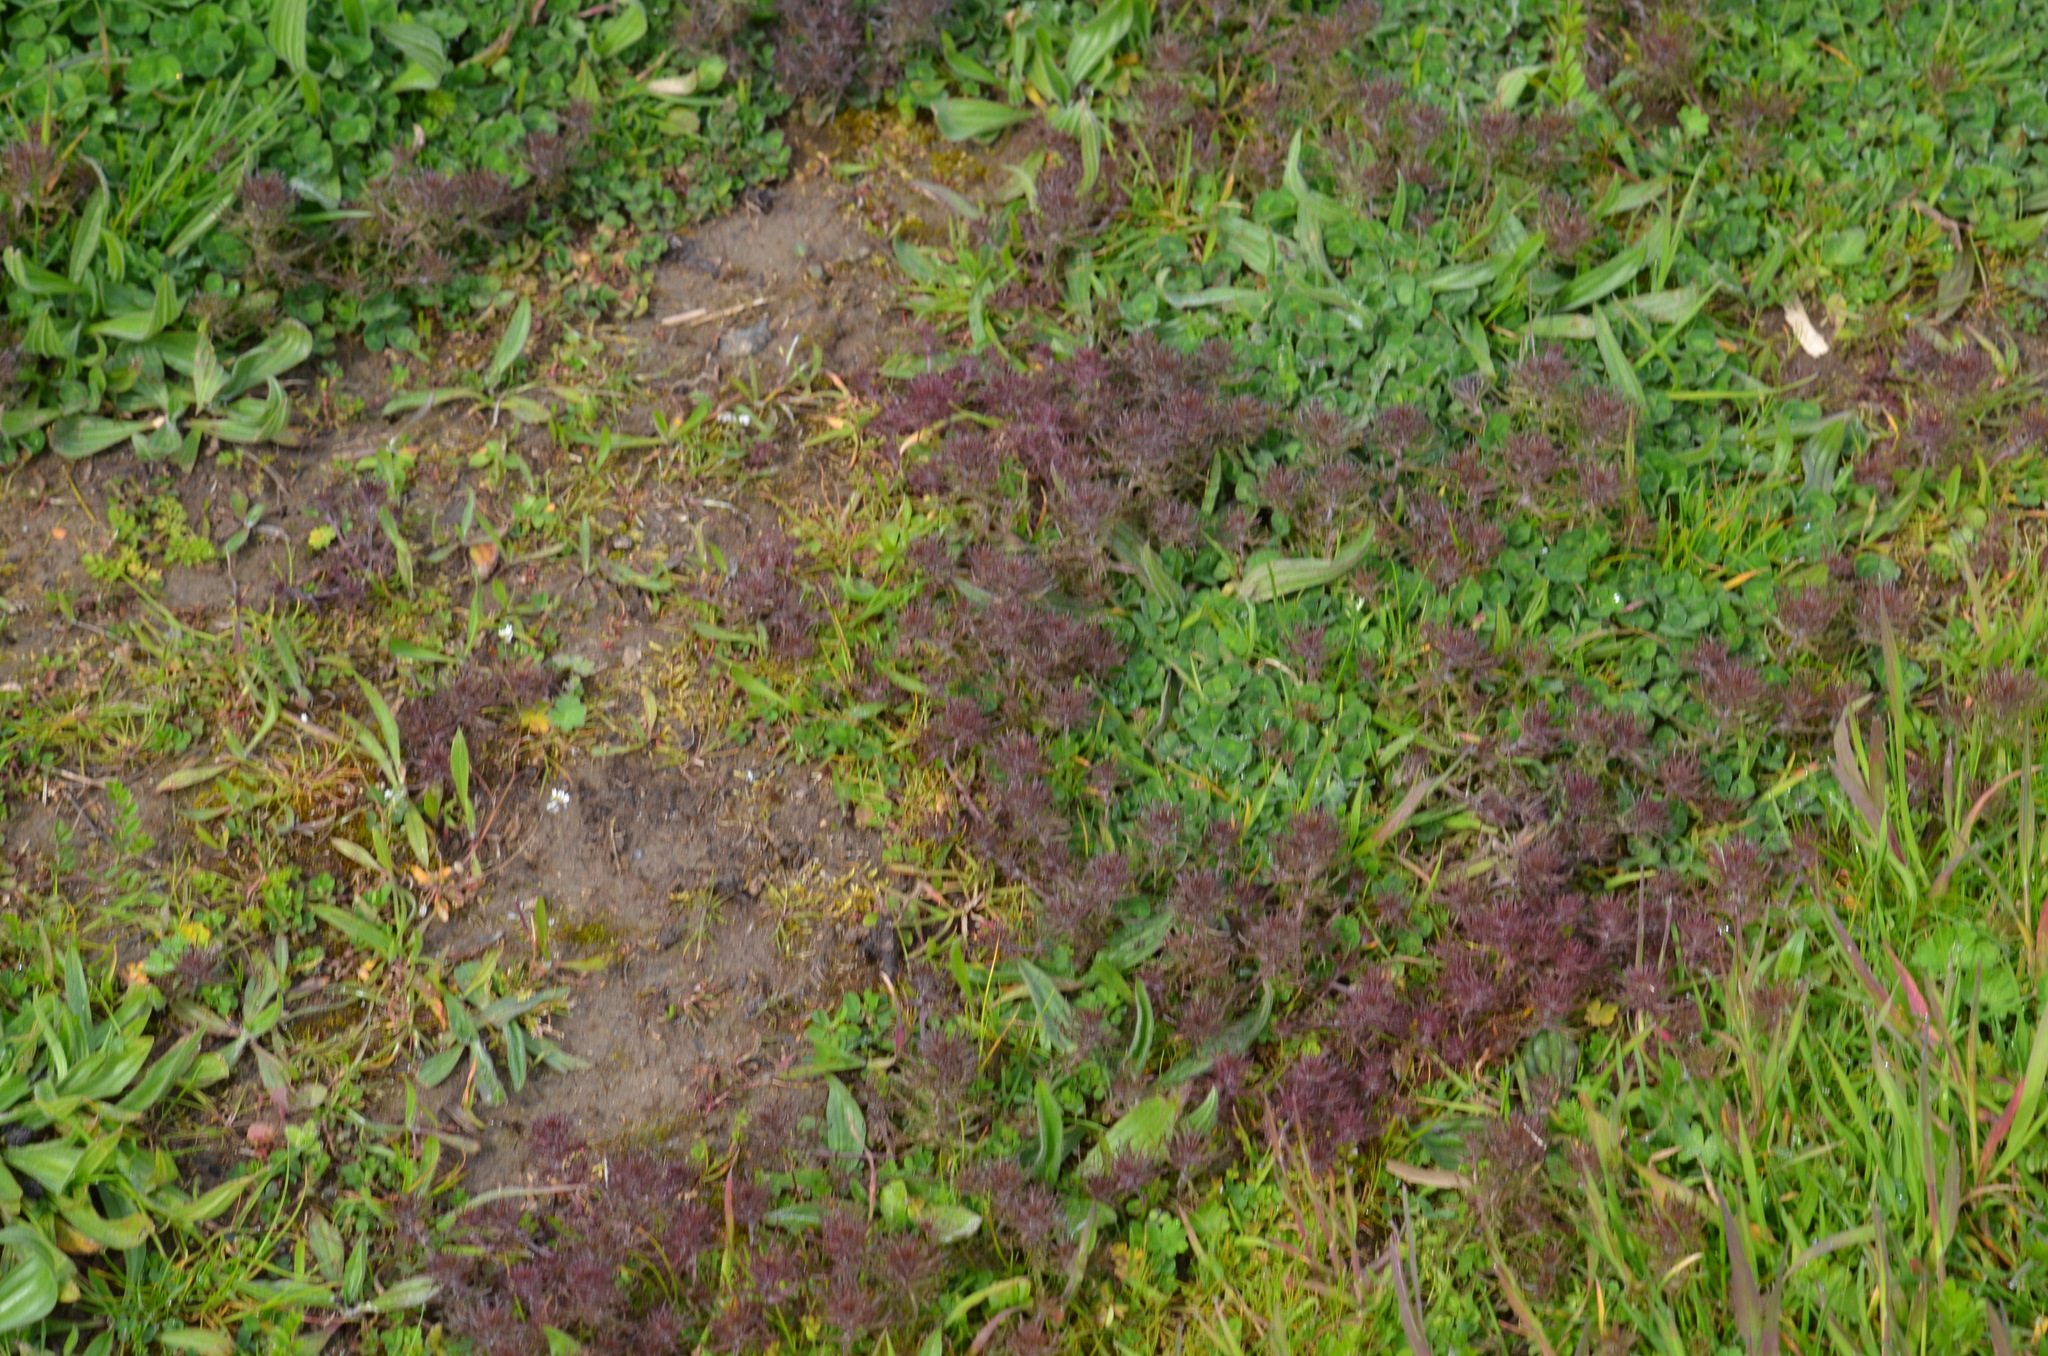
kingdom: Plantae
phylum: Tracheophyta
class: Magnoliopsida
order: Lamiales
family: Orobanchaceae
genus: Triphysaria
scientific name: Triphysaria pusilla
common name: Dwarf false owl-clover
